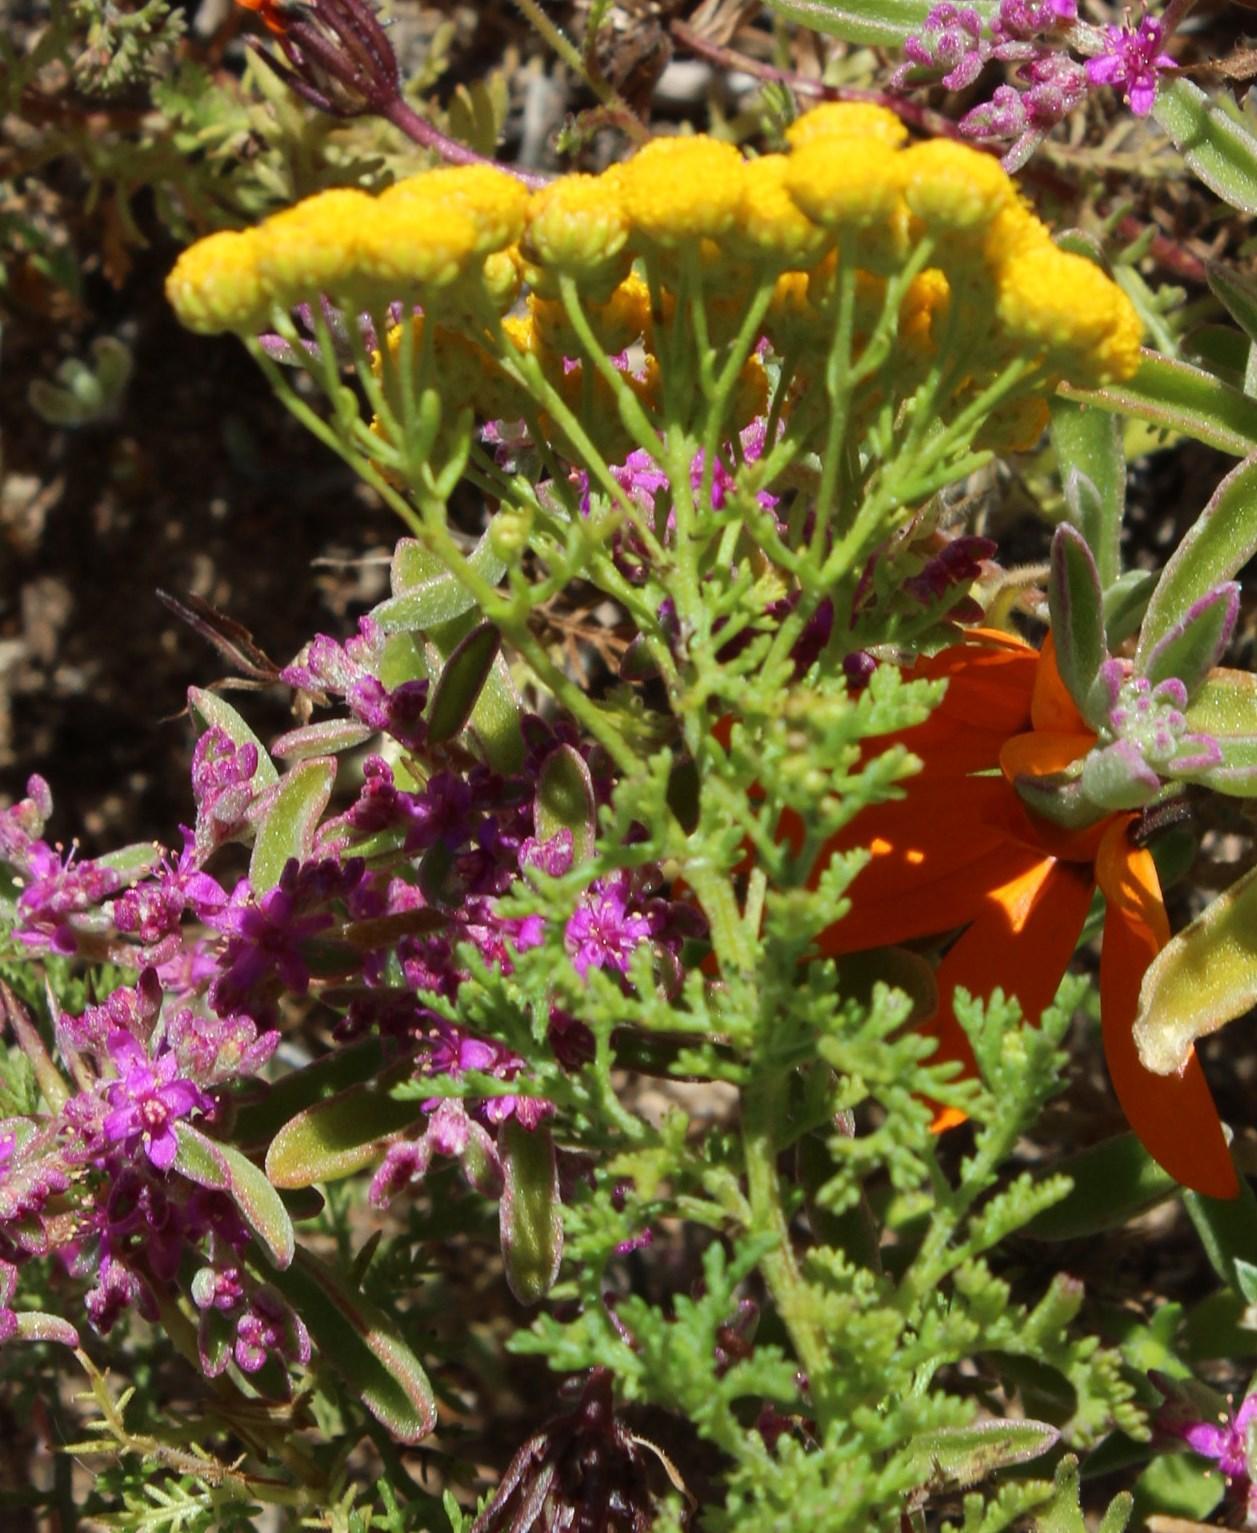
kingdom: Plantae
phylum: Tracheophyta
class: Magnoliopsida
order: Asterales
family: Asteraceae
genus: Oncosiphon
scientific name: Oncosiphon suffruticosus
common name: Shrubby mayweed
